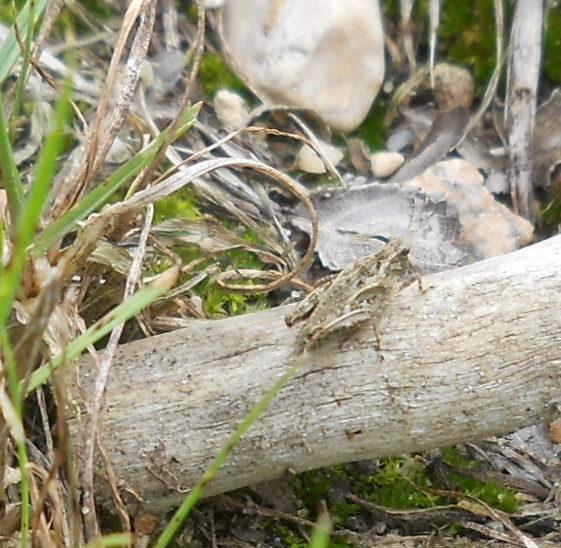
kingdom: Animalia
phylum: Arthropoda
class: Insecta
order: Orthoptera
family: Tetrigidae
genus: Tetrix
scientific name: Tetrix undulata
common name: Common groundhopper
